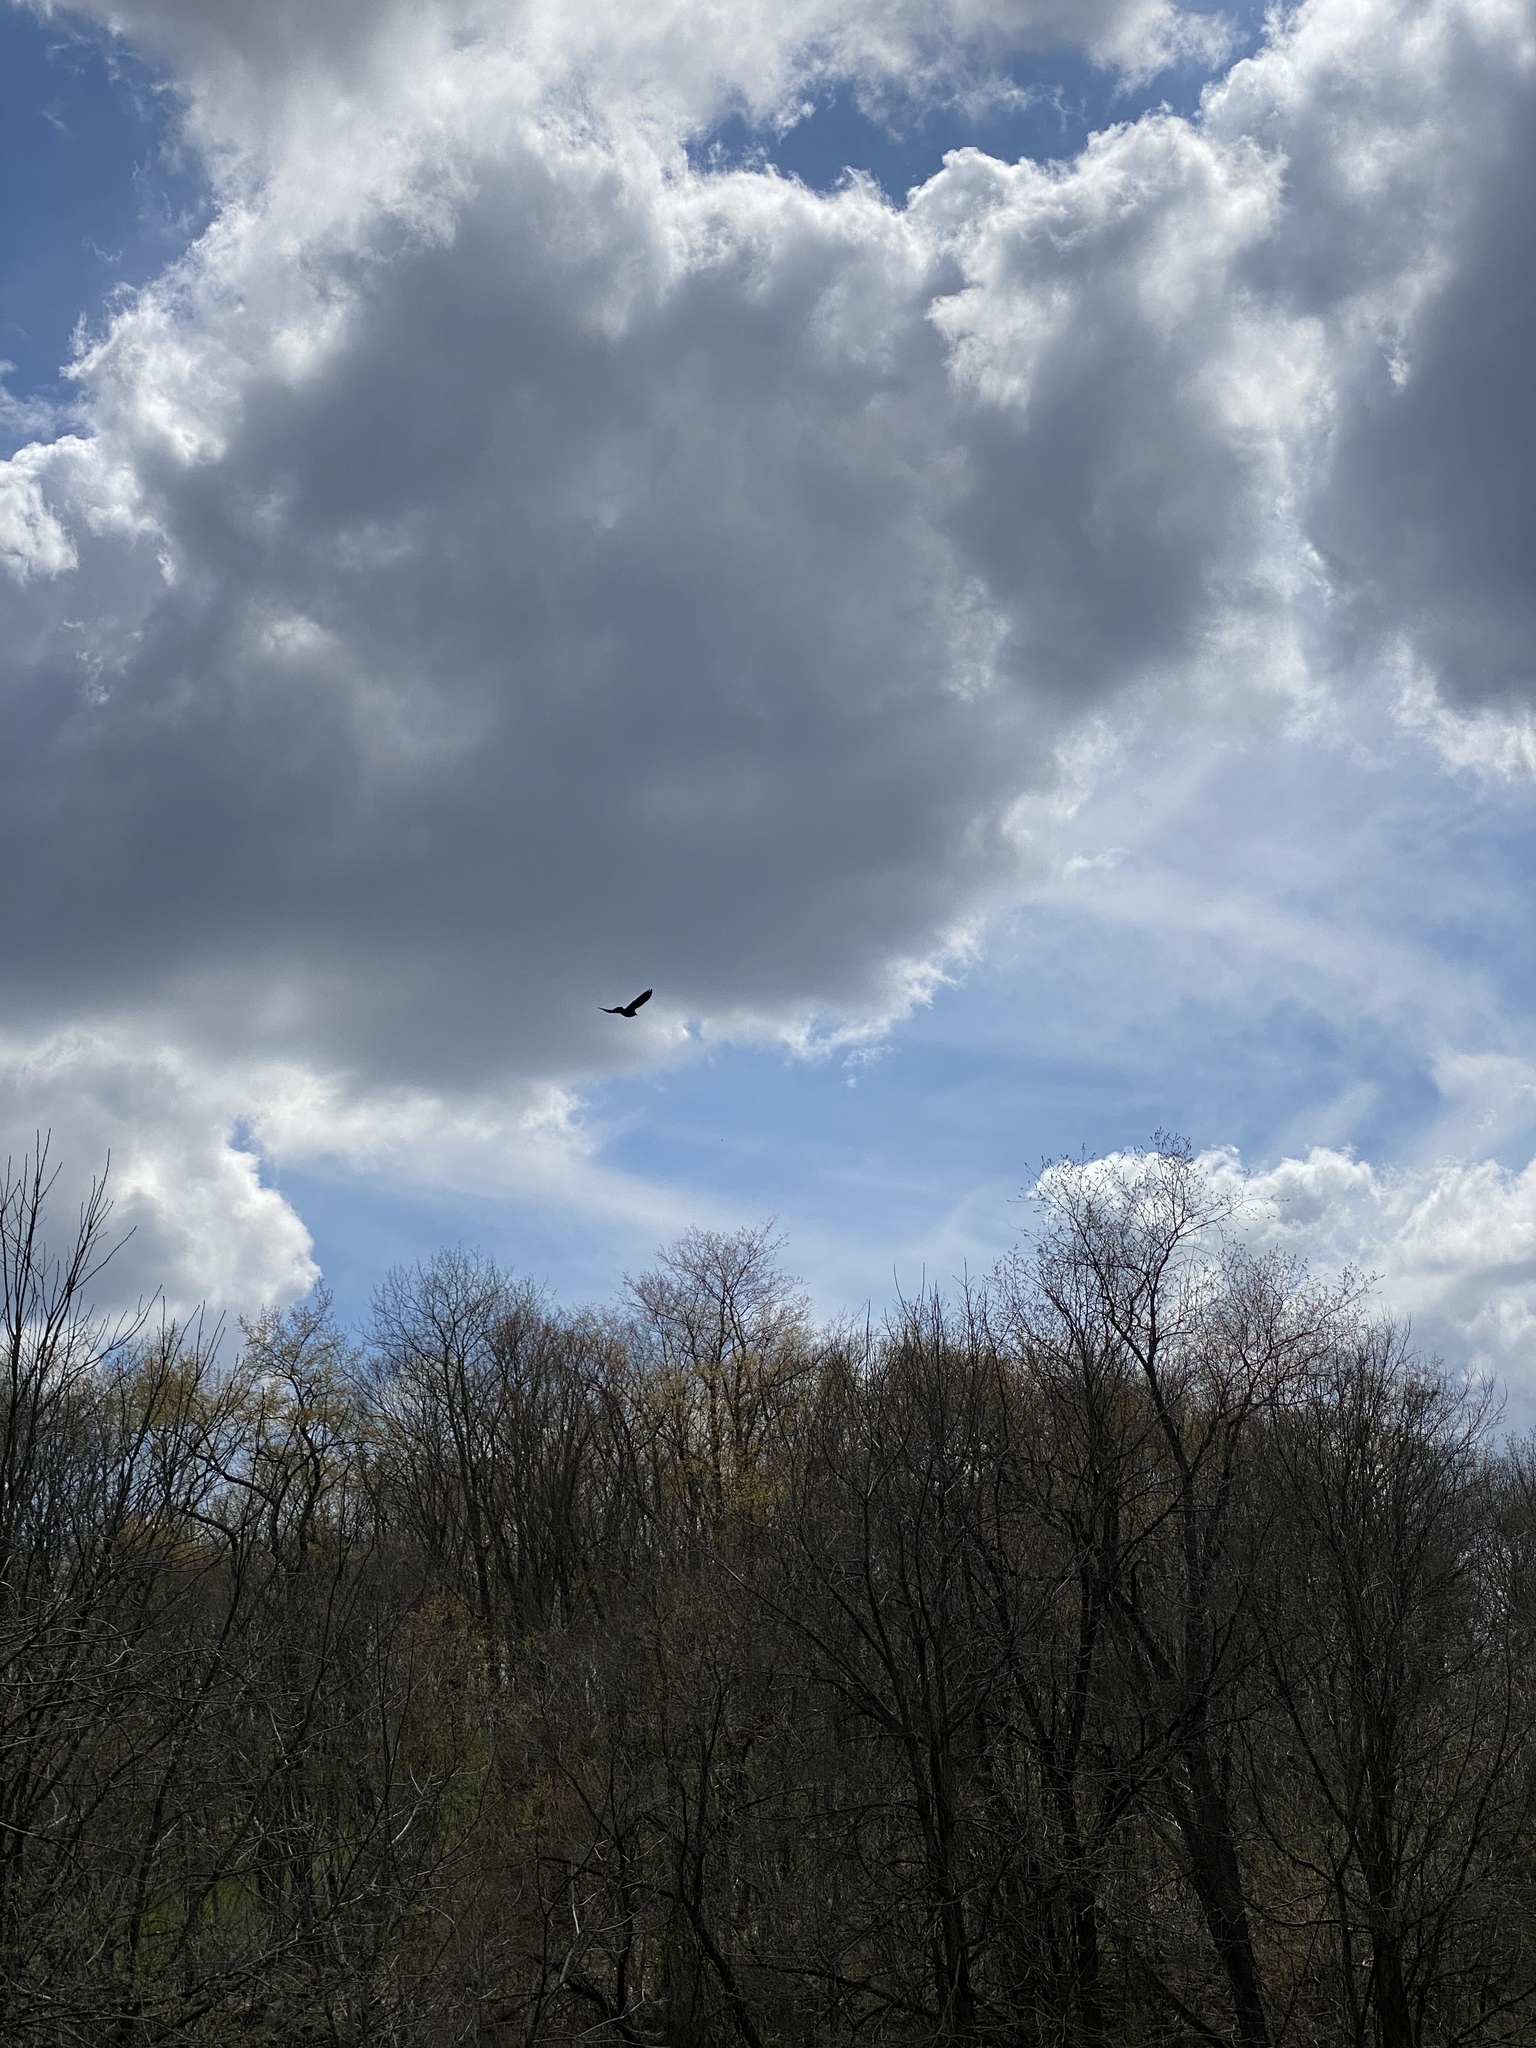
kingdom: Animalia
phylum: Chordata
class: Aves
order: Passeriformes
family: Icteridae
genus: Agelaius
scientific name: Agelaius phoeniceus
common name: Red-winged blackbird
